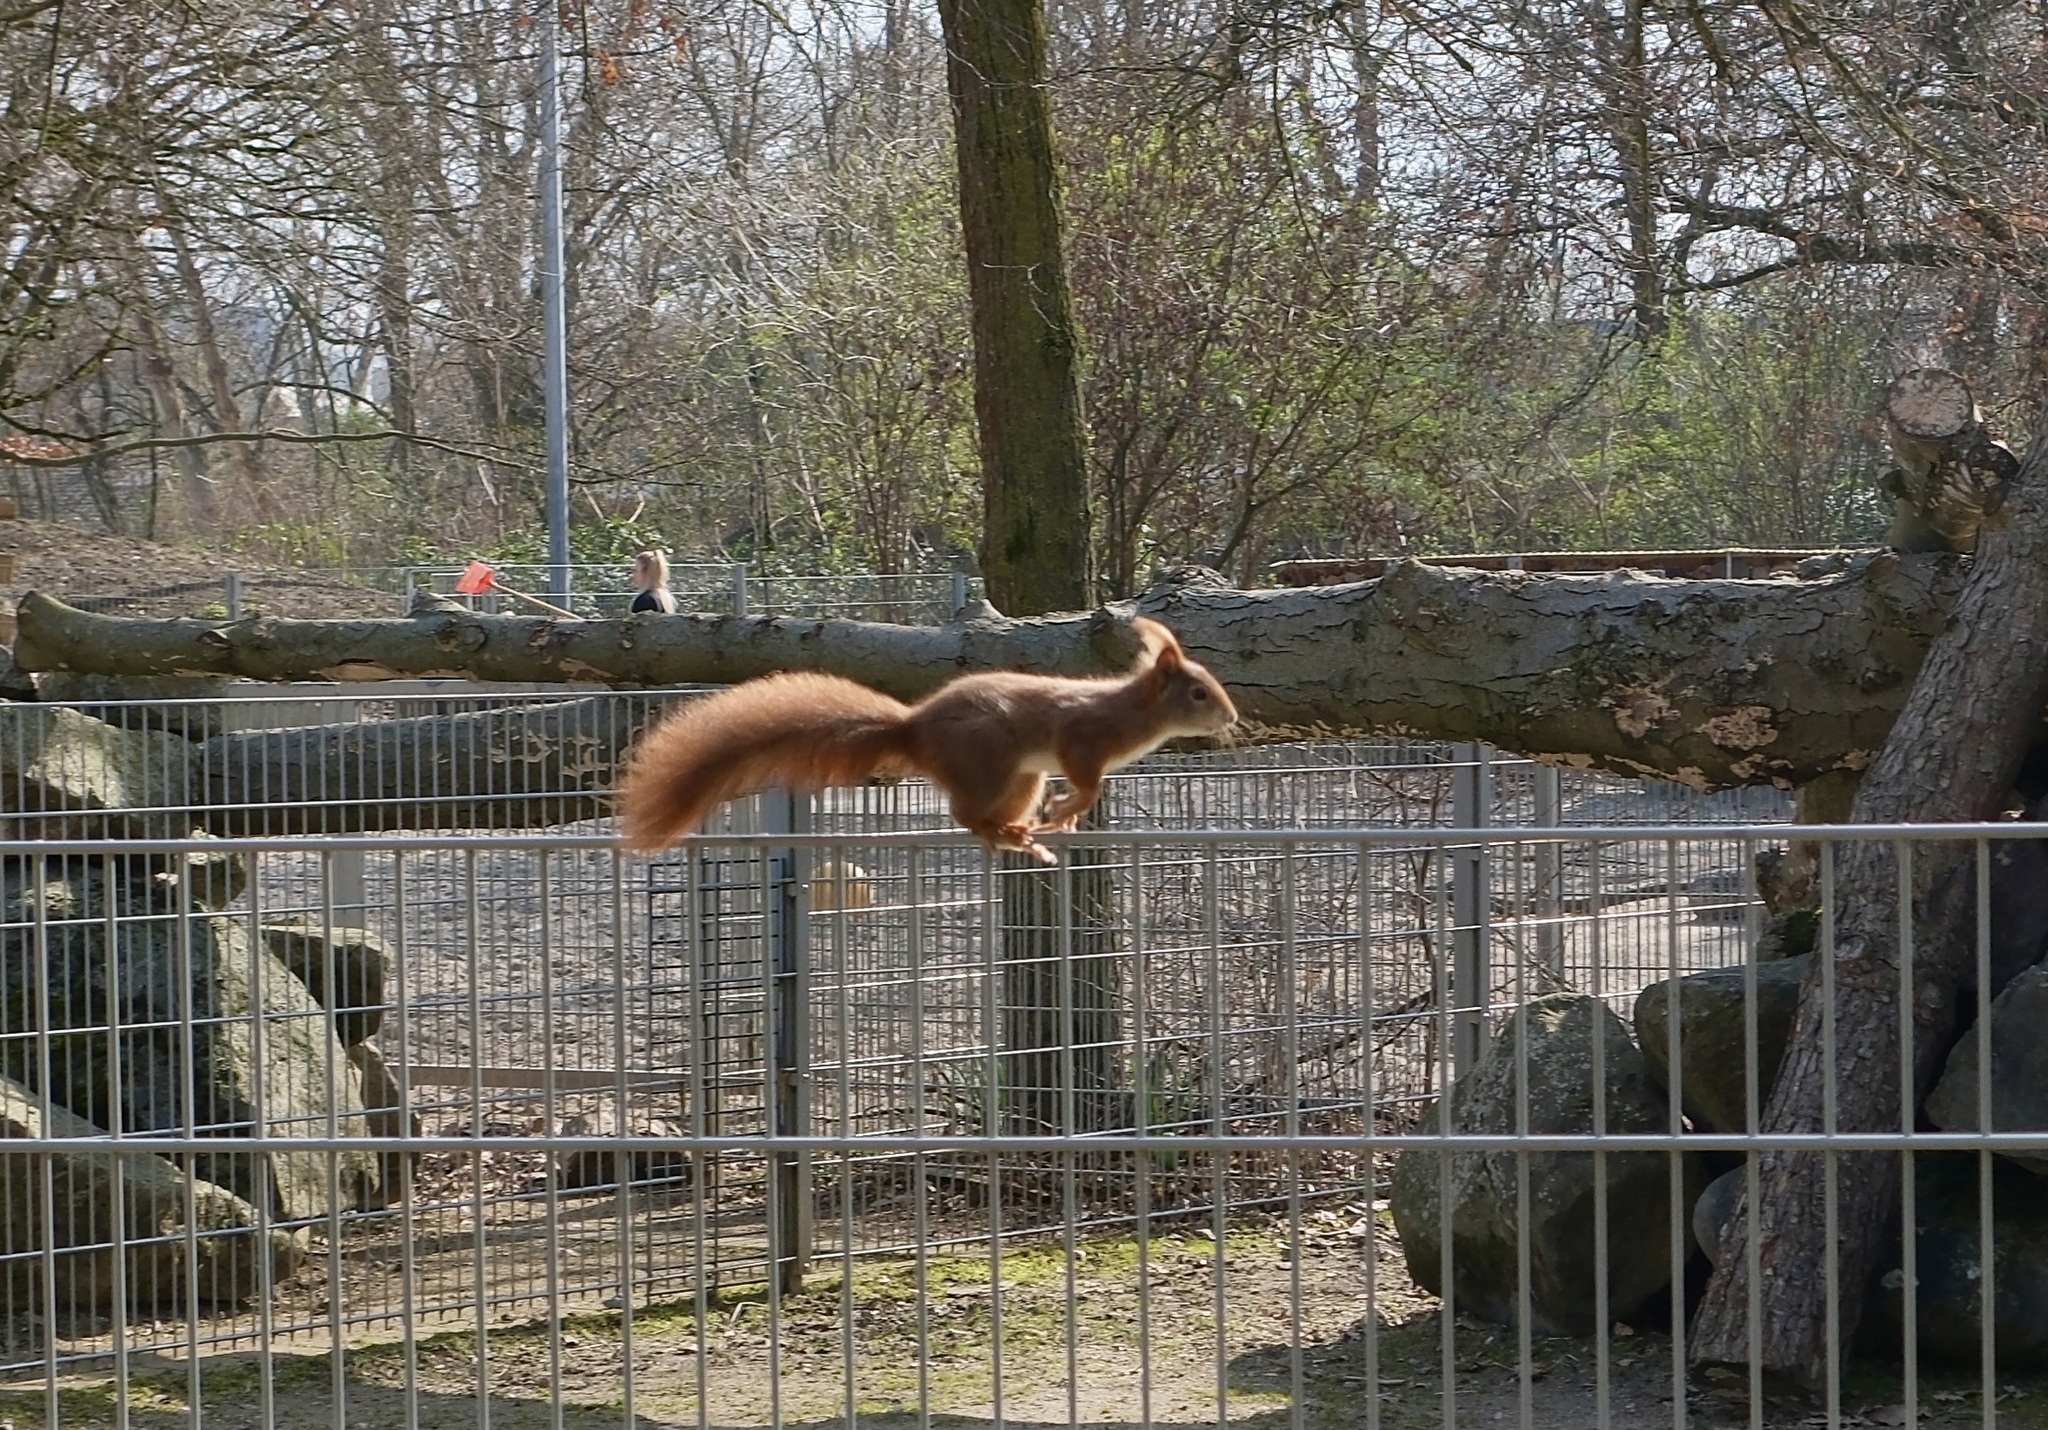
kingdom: Animalia
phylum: Chordata
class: Mammalia
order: Rodentia
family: Sciuridae
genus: Sciurus
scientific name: Sciurus vulgaris
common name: Eurasian red squirrel
